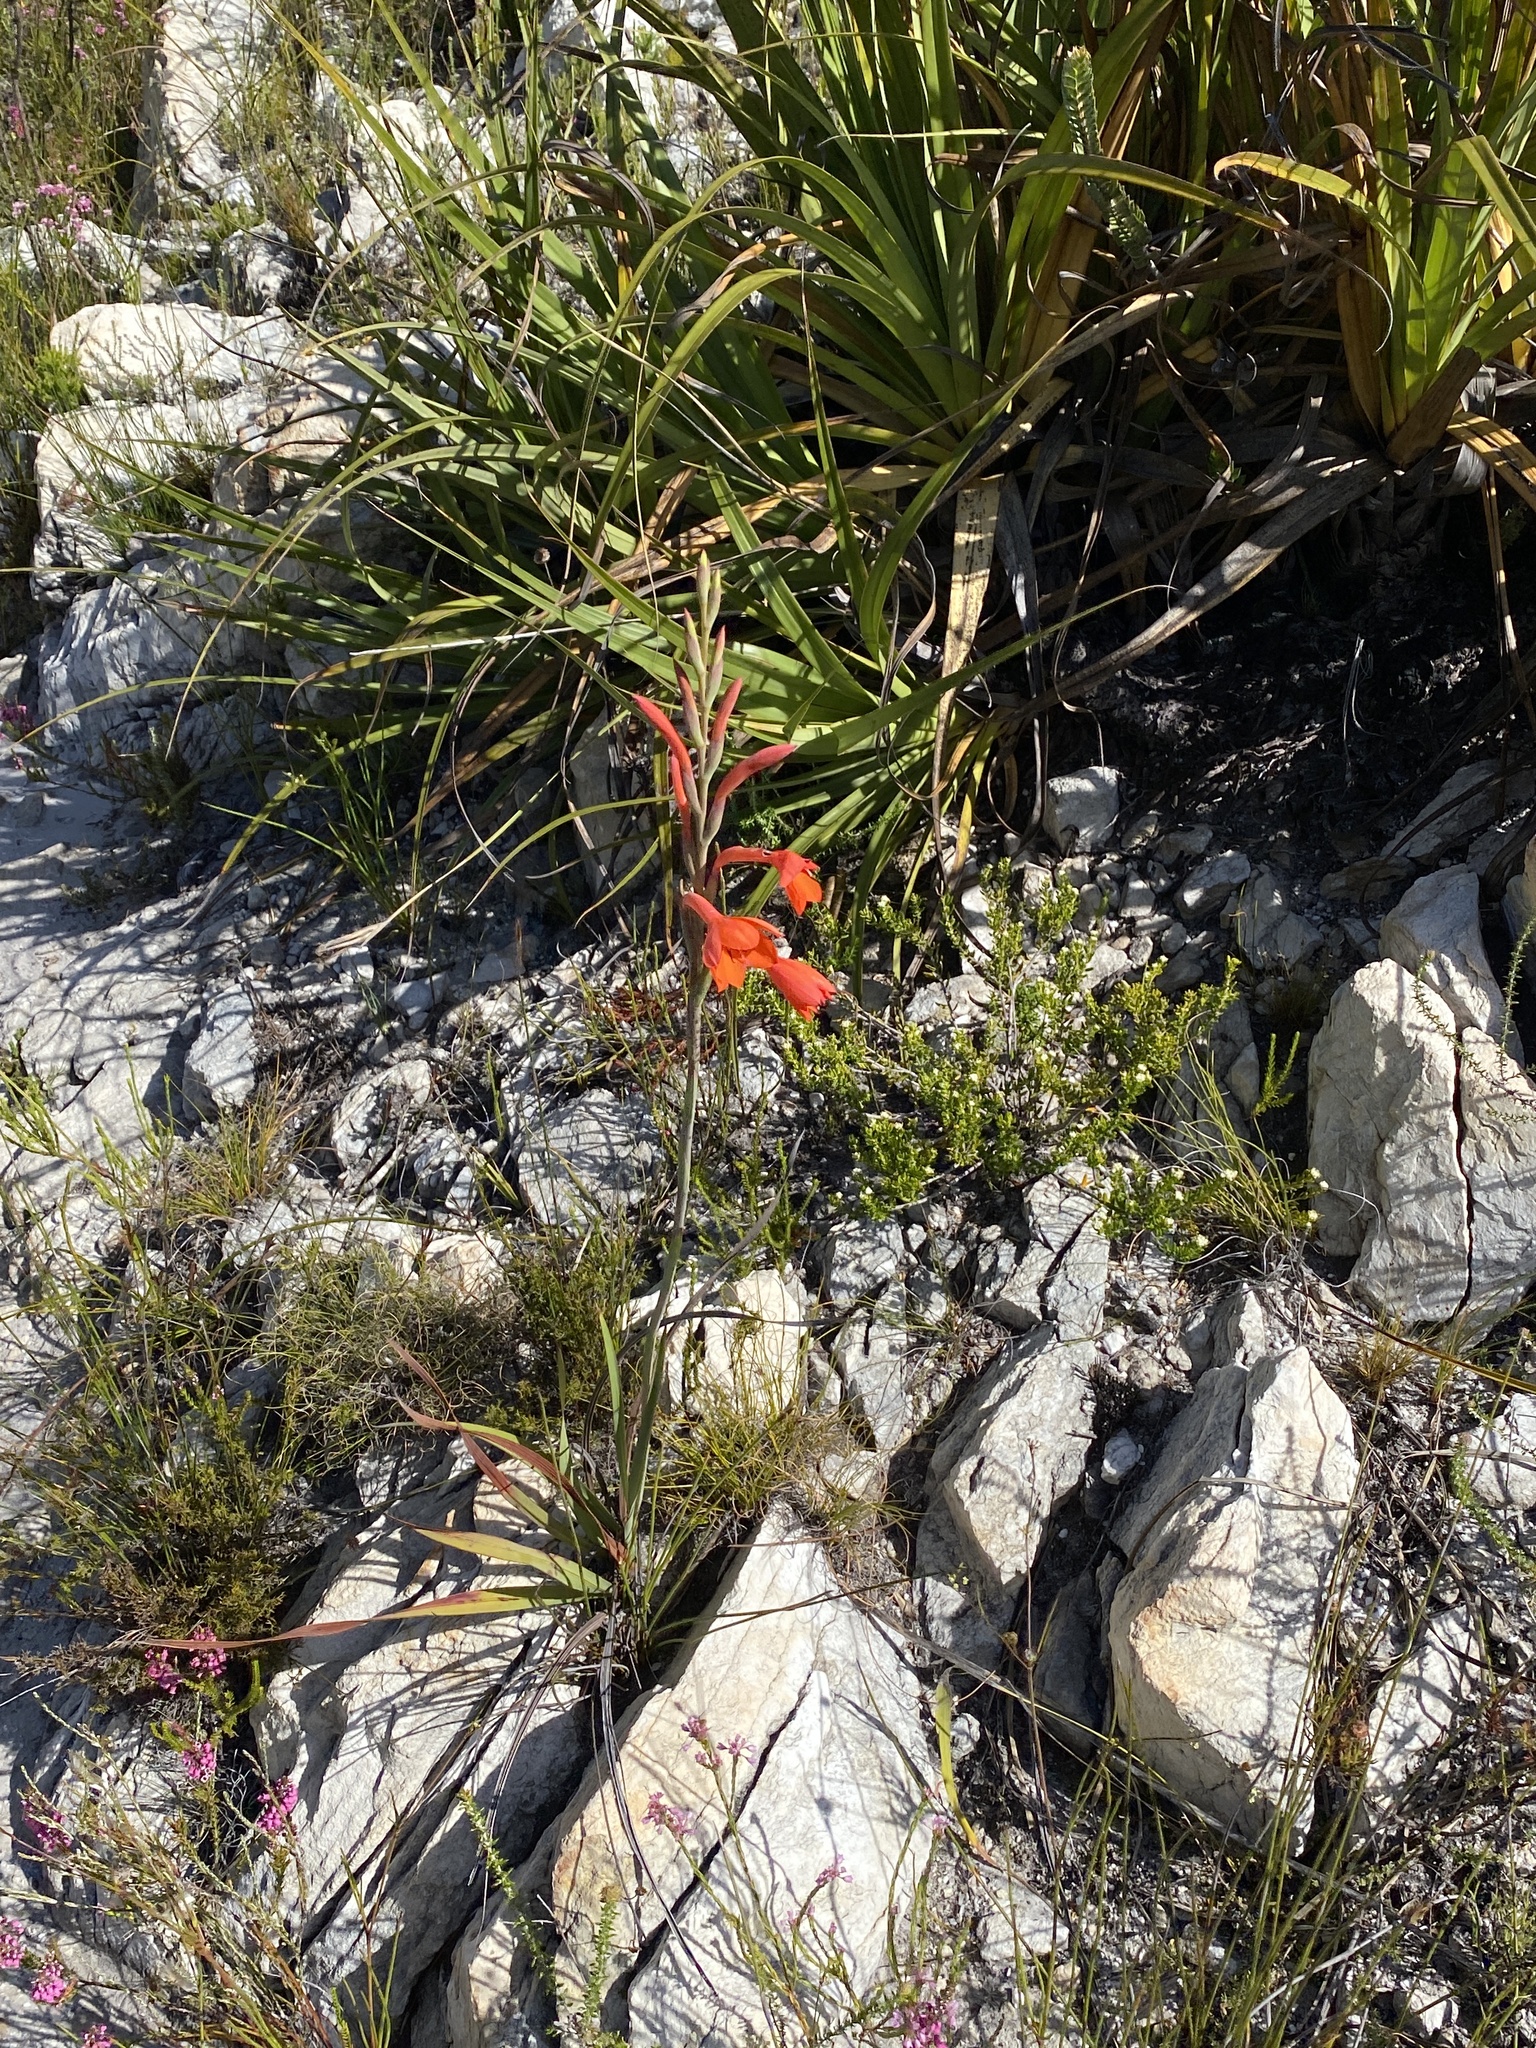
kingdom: Plantae
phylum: Tracheophyta
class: Liliopsida
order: Asparagales
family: Iridaceae
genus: Watsonia
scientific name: Watsonia schlechteri
